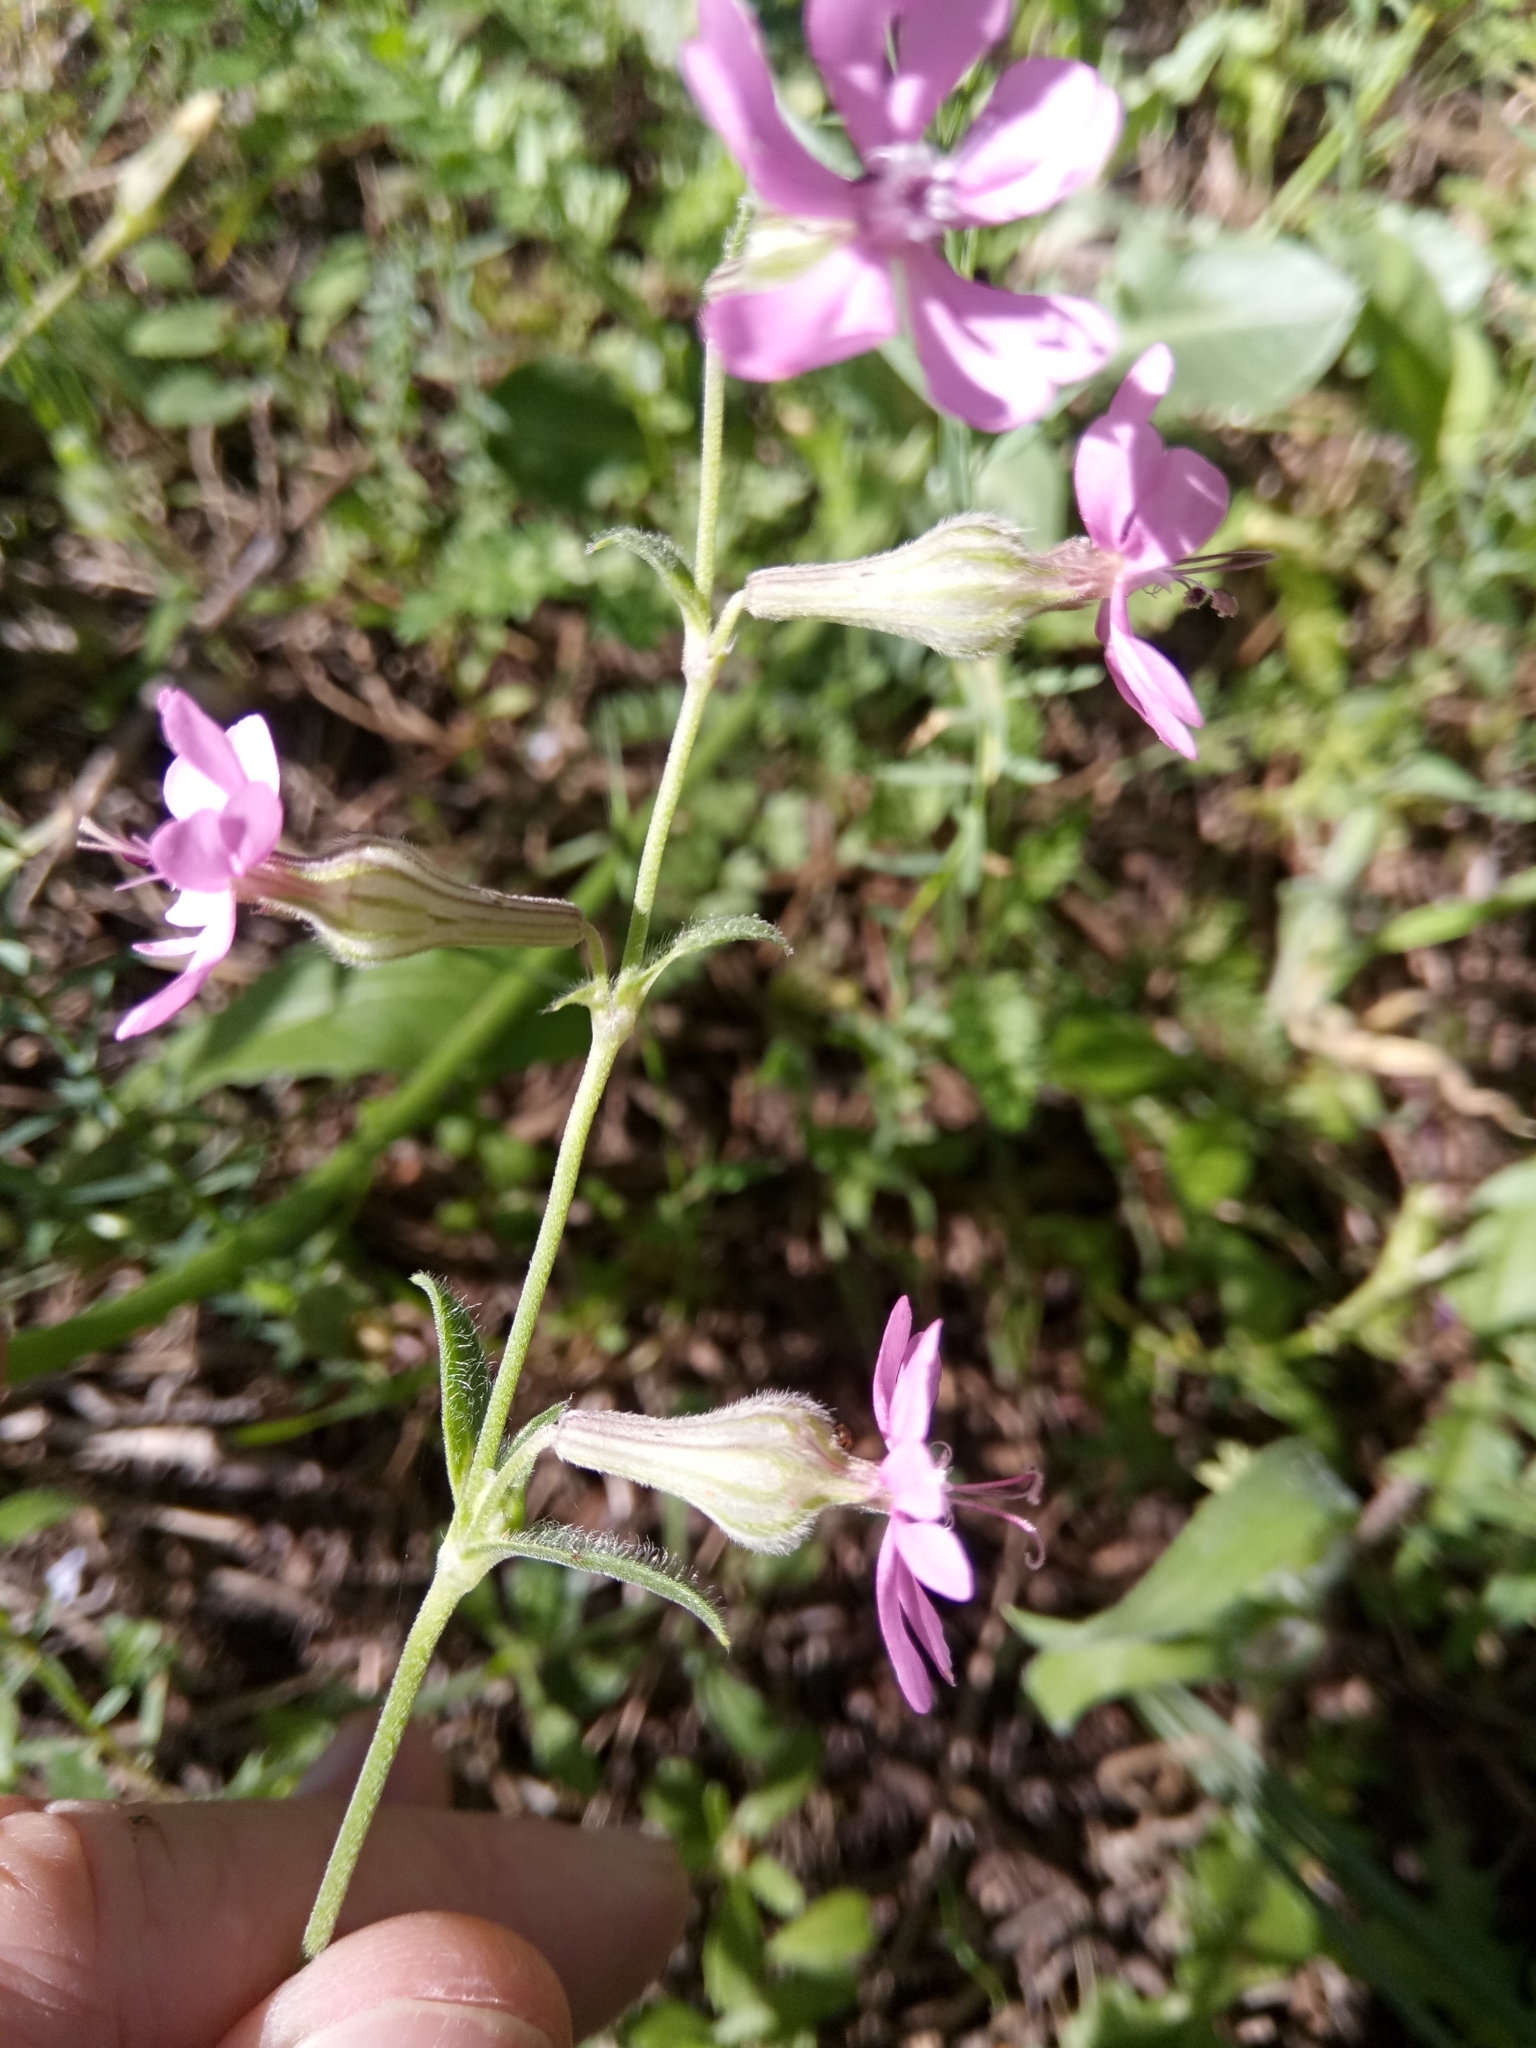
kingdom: Plantae
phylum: Tracheophyta
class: Magnoliopsida
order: Caryophyllales
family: Caryophyllaceae
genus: Silene
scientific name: Silene colorata
